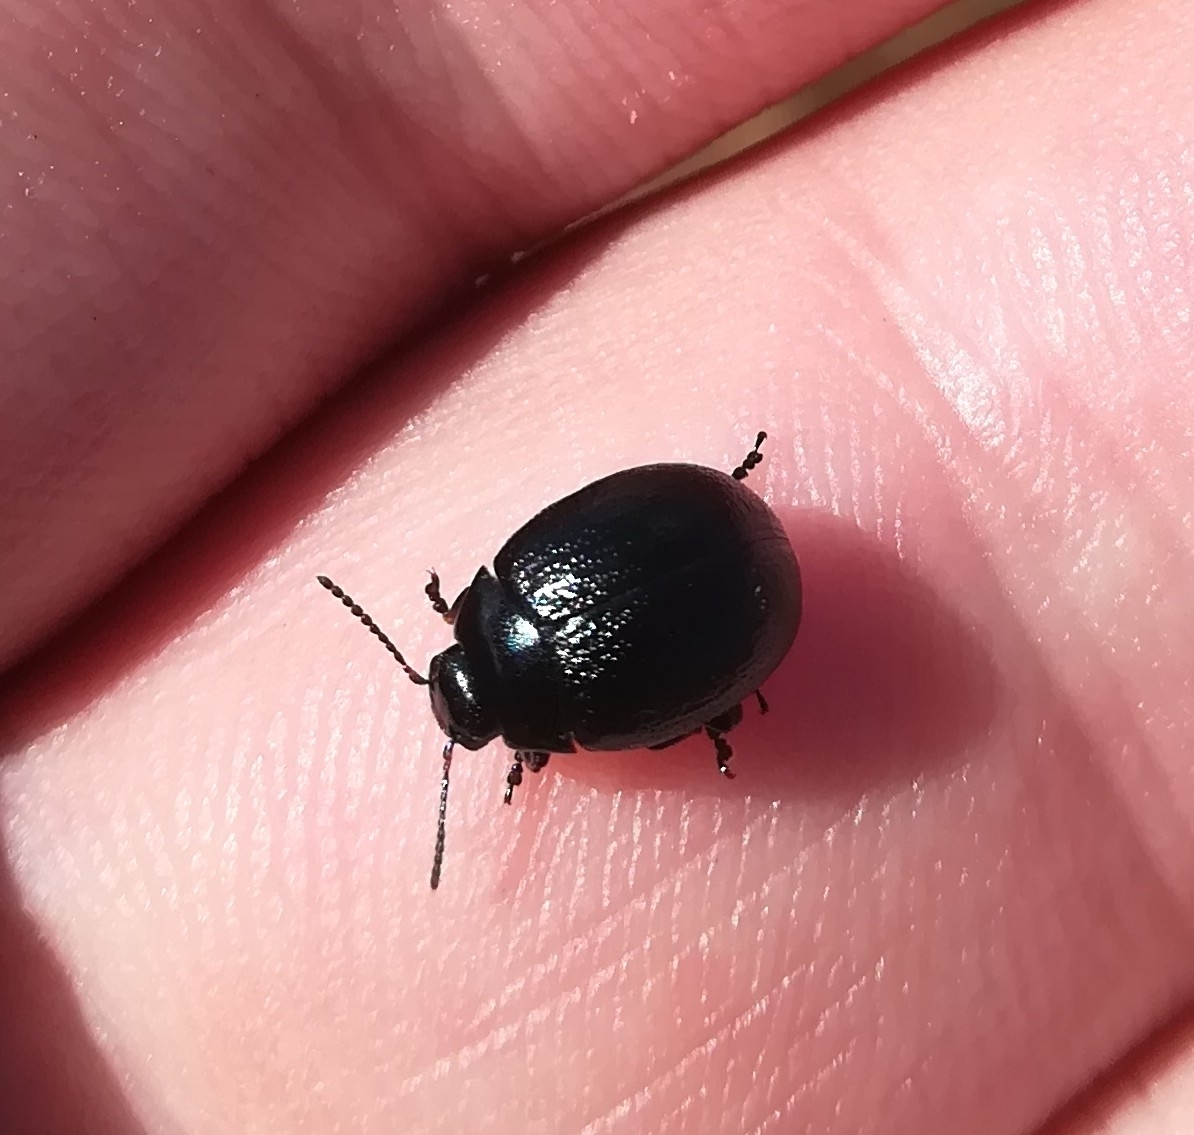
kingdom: Animalia
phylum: Arthropoda
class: Insecta
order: Coleoptera
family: Chrysomelidae
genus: Chrysolina
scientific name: Chrysolina haemoptera
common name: Plantain leaf beetle
